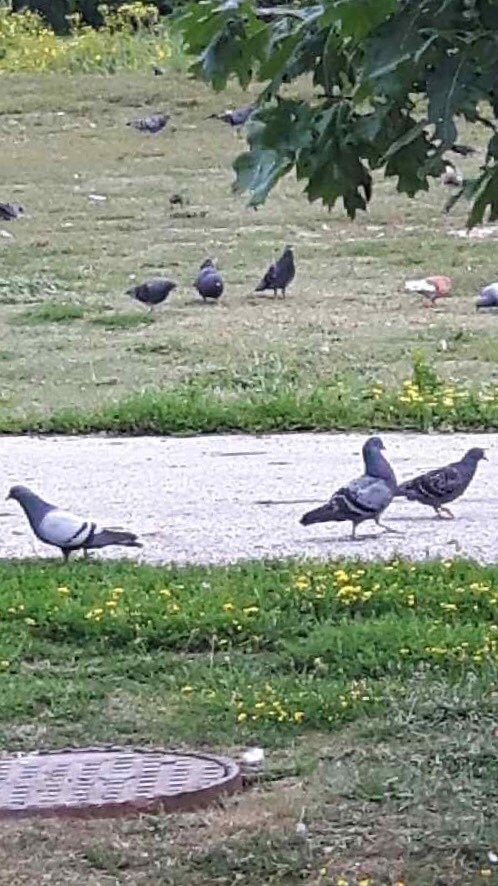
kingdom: Animalia
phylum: Chordata
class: Aves
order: Columbiformes
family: Columbidae
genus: Columba
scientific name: Columba livia
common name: Rock pigeon
